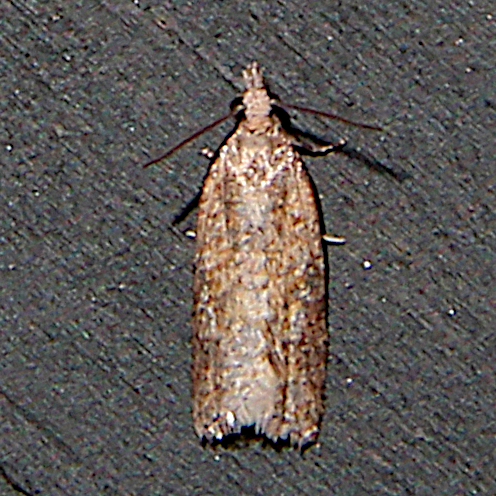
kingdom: Animalia
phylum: Arthropoda
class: Insecta
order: Lepidoptera
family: Tortricidae
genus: Capua
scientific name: Capua semiferana
